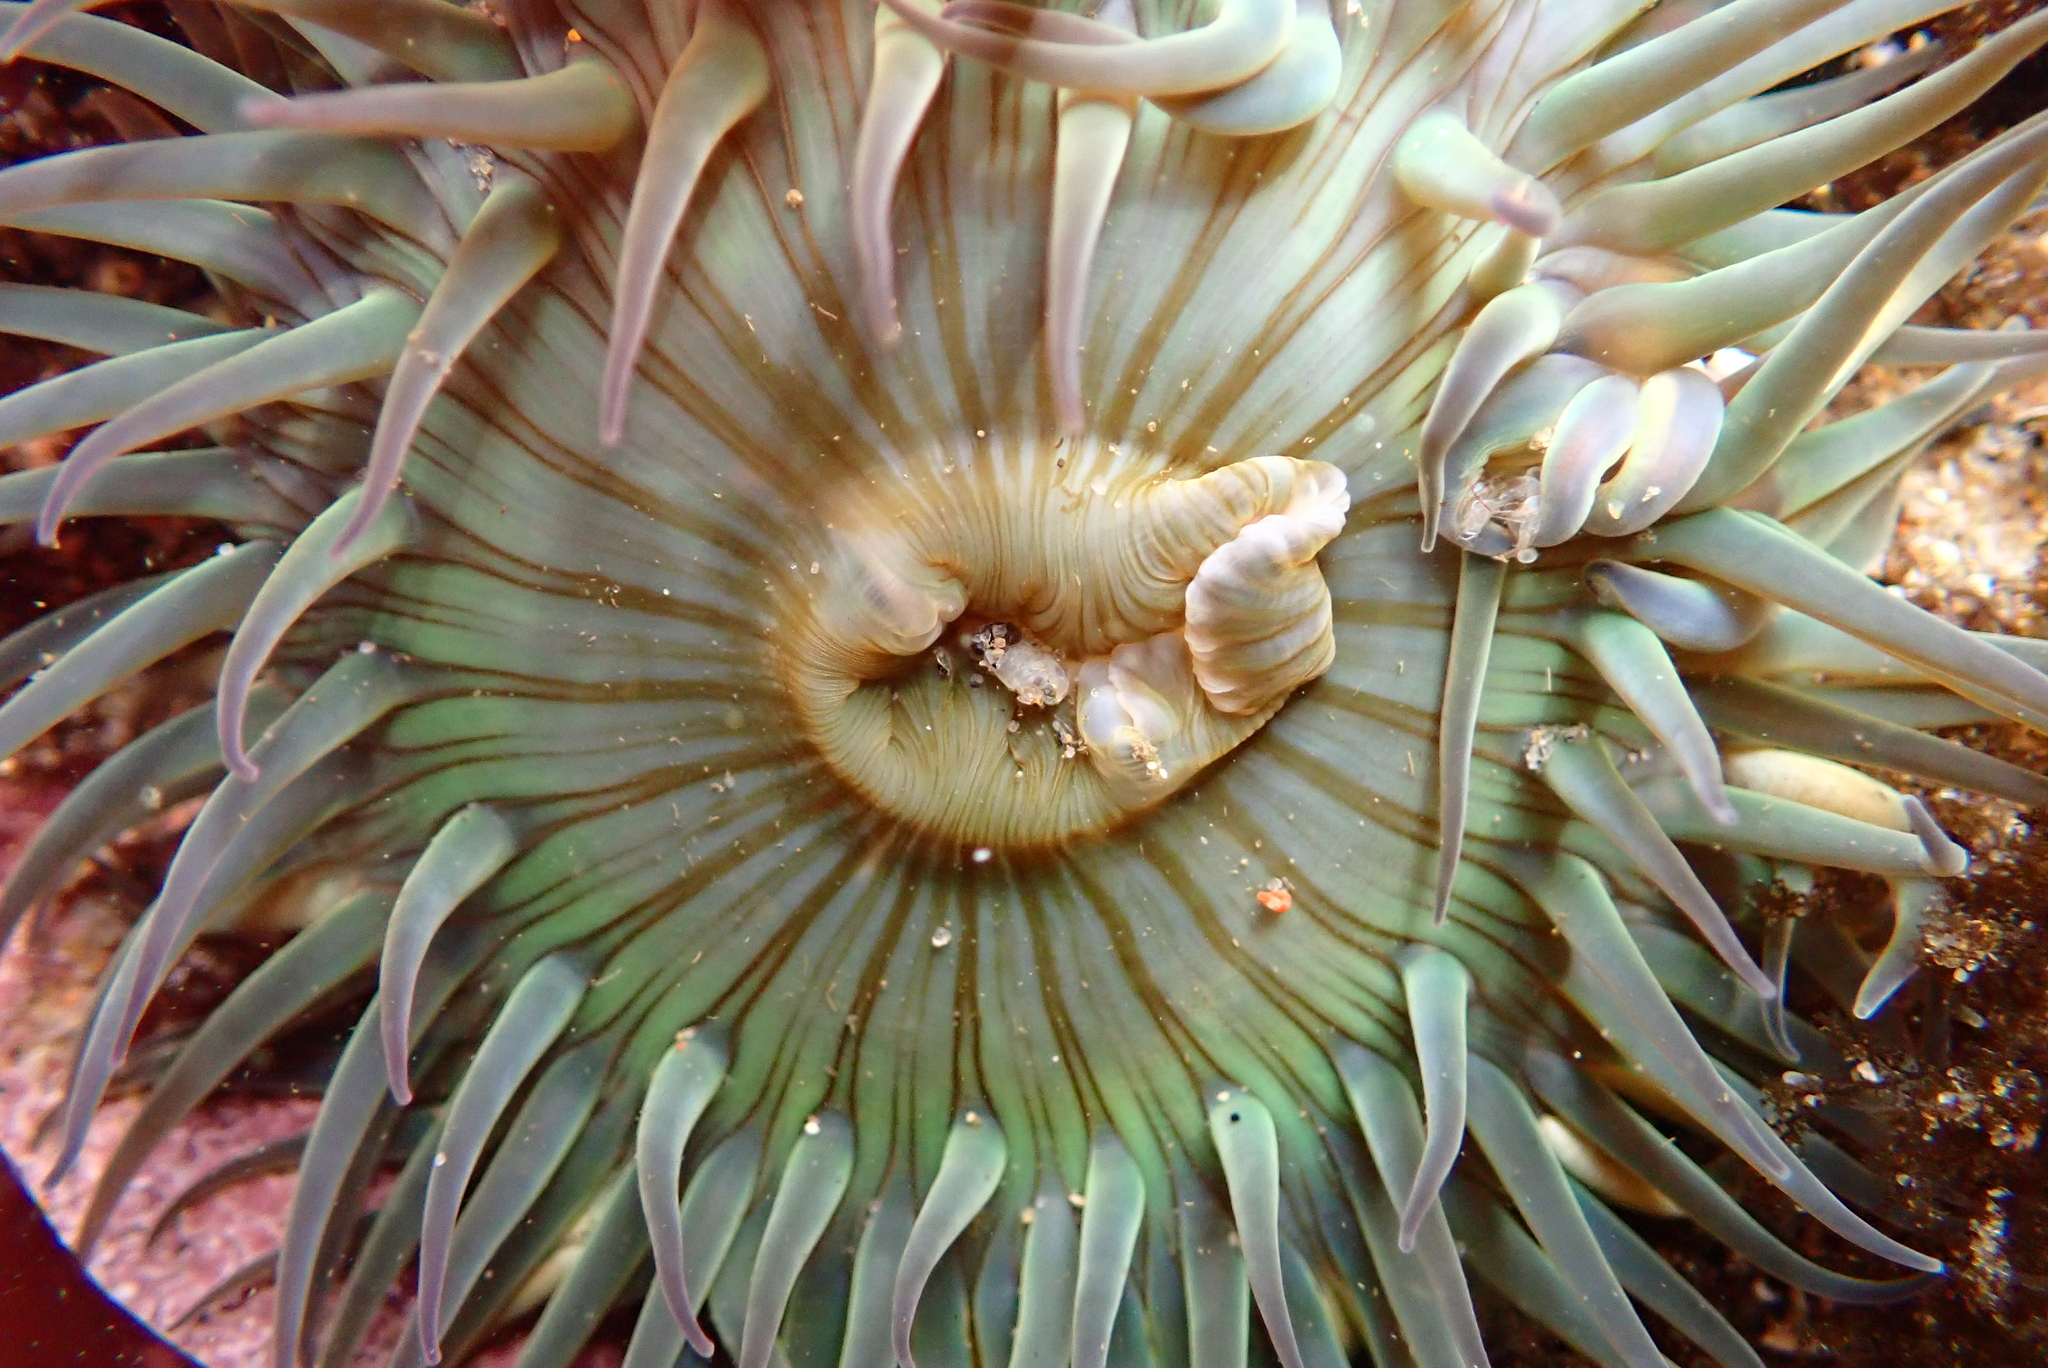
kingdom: Animalia
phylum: Cnidaria
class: Anthozoa
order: Actiniaria
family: Actiniidae
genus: Anthopleura
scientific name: Anthopleura sola
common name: Sun anemone
